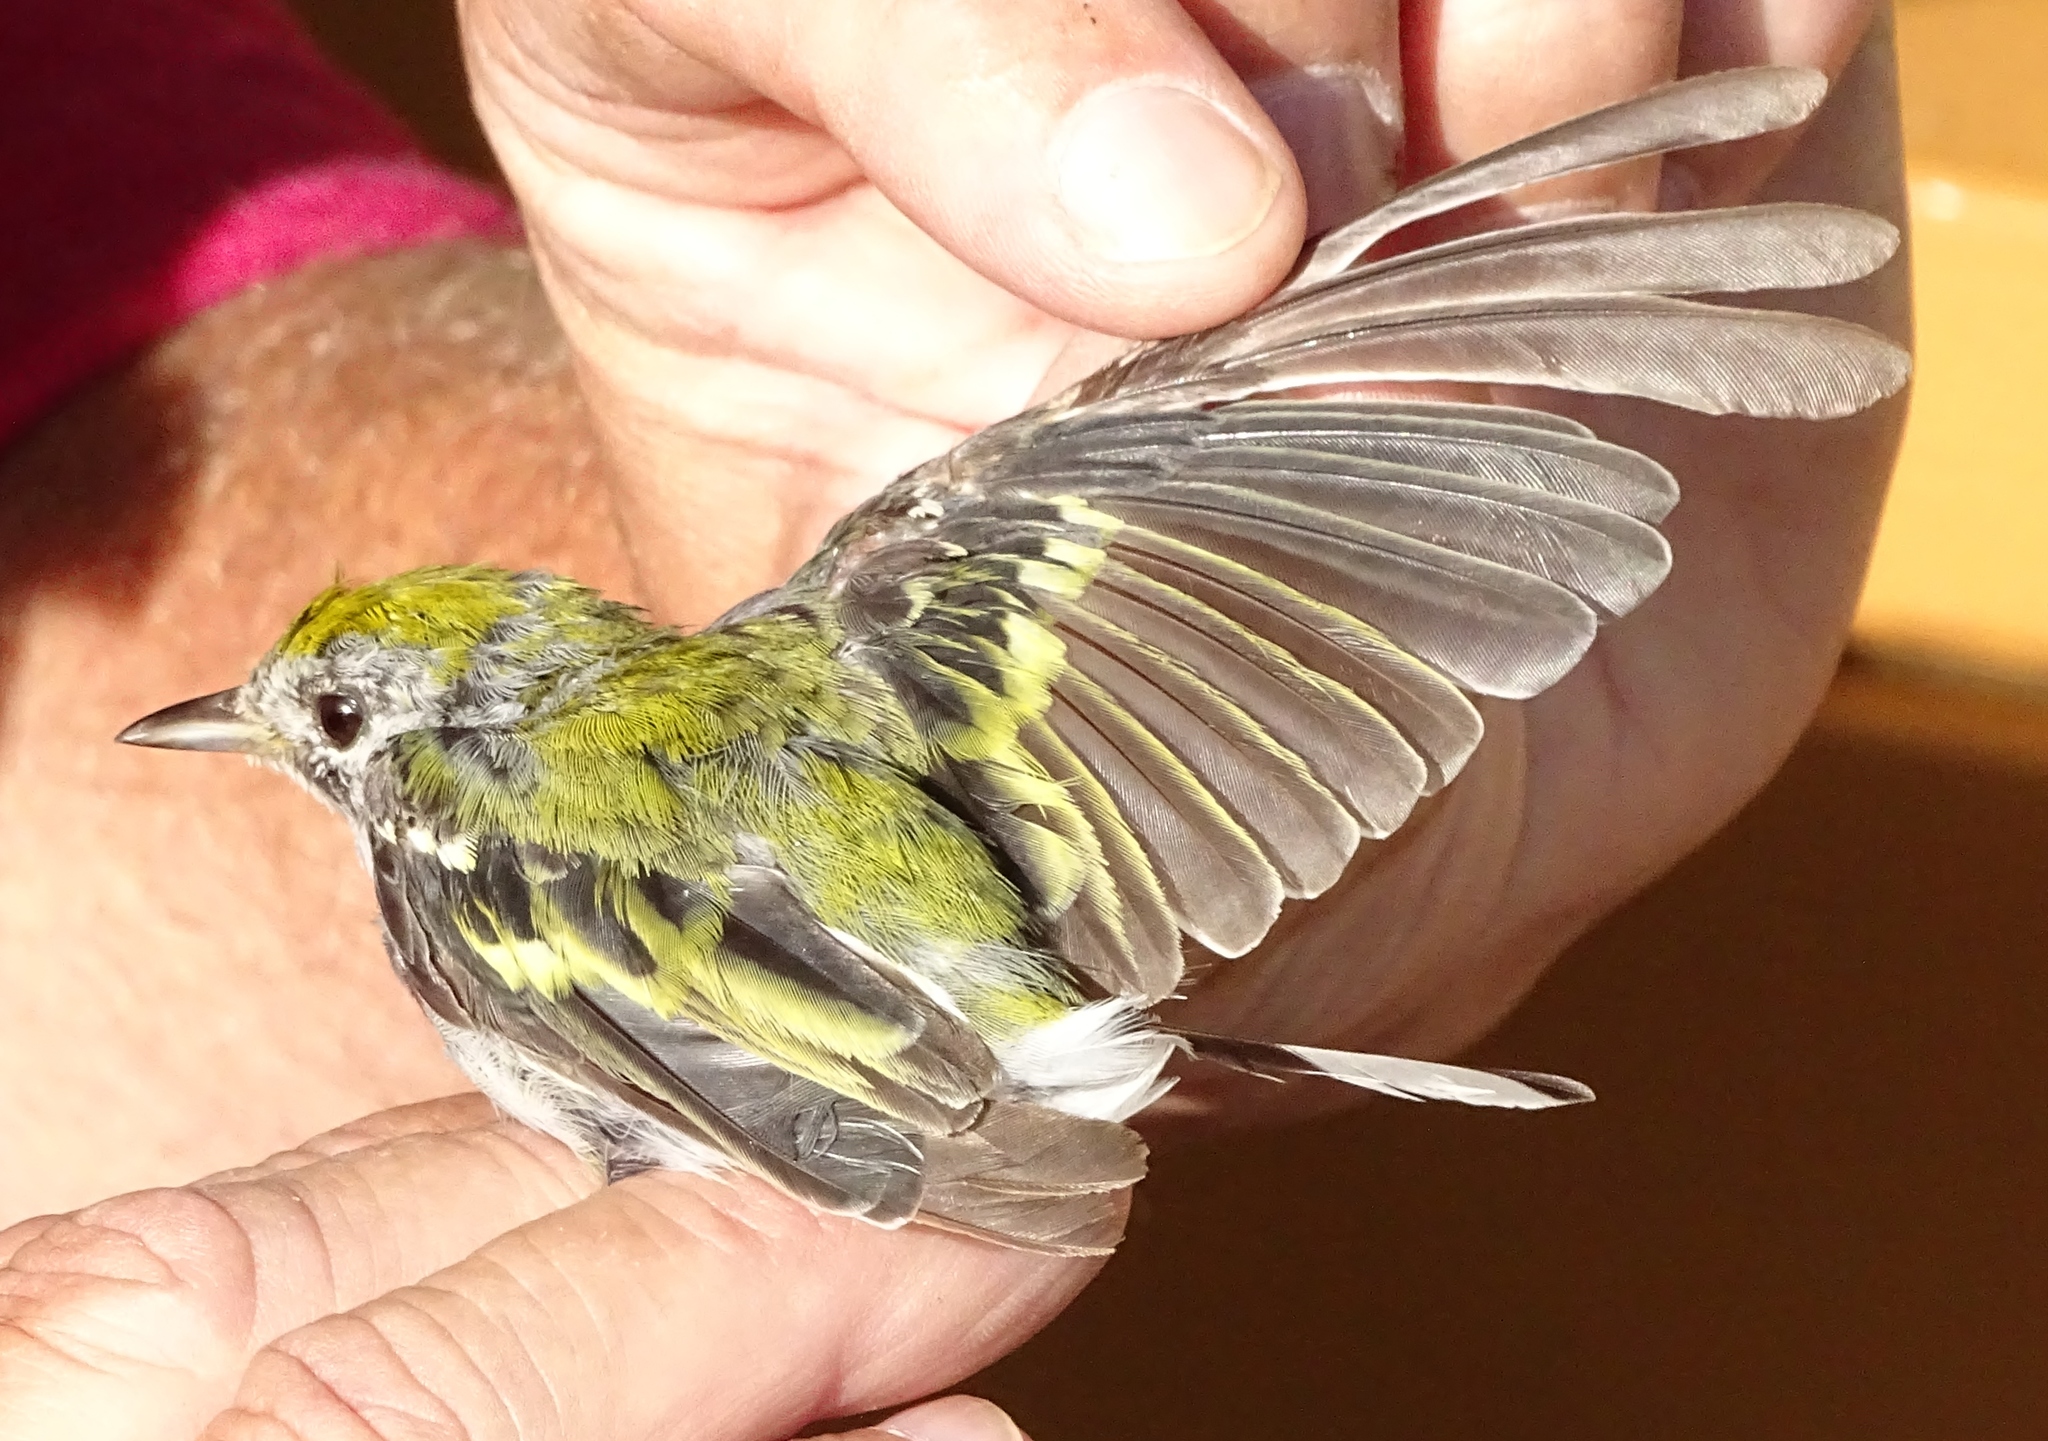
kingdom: Animalia
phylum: Chordata
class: Aves
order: Passeriformes
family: Parulidae
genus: Setophaga
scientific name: Setophaga pensylvanica
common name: Chestnut-sided warbler
